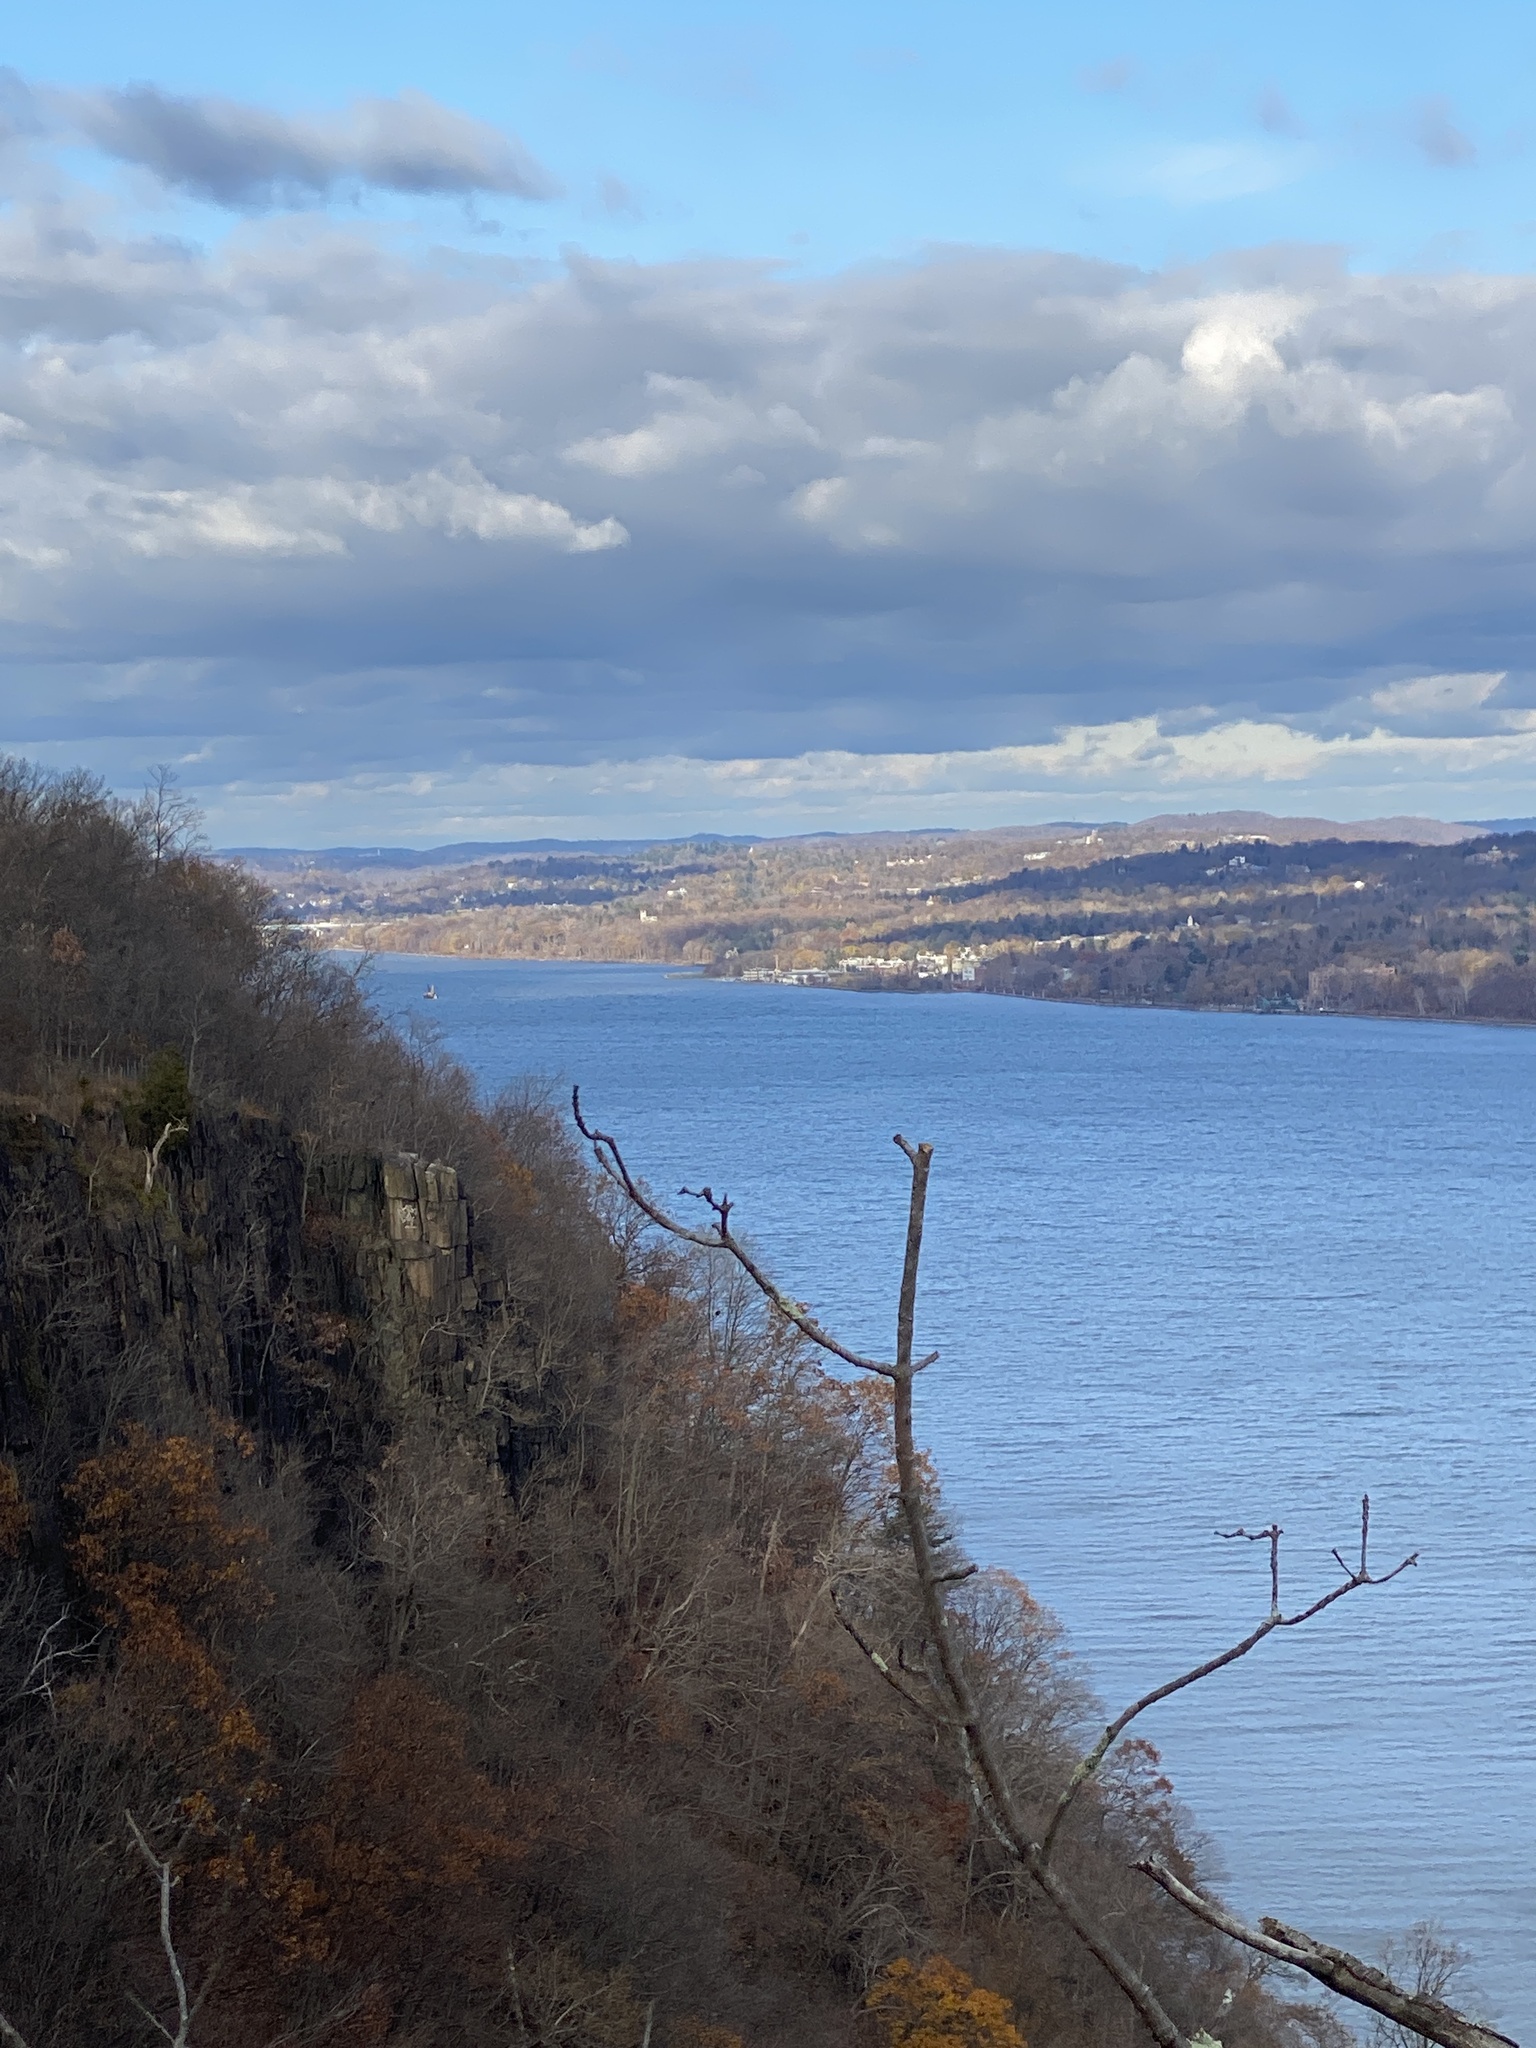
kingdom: Plantae
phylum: Tracheophyta
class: Magnoliopsida
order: Rosales
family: Rosaceae
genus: Rubus
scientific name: Rubus phoenicolasius
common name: Japanese wineberry
